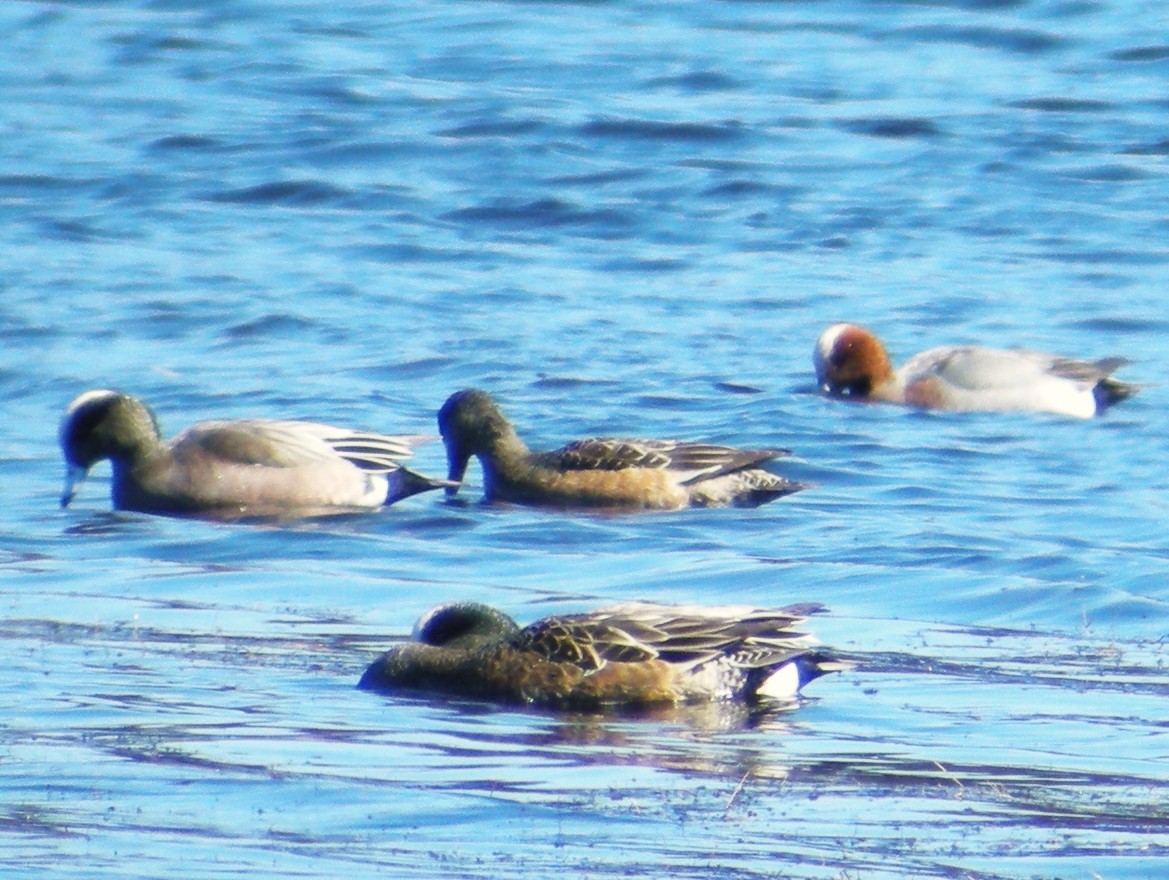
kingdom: Animalia
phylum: Chordata
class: Aves
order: Anseriformes
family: Anatidae
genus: Mareca
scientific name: Mareca penelope
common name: Eurasian wigeon
